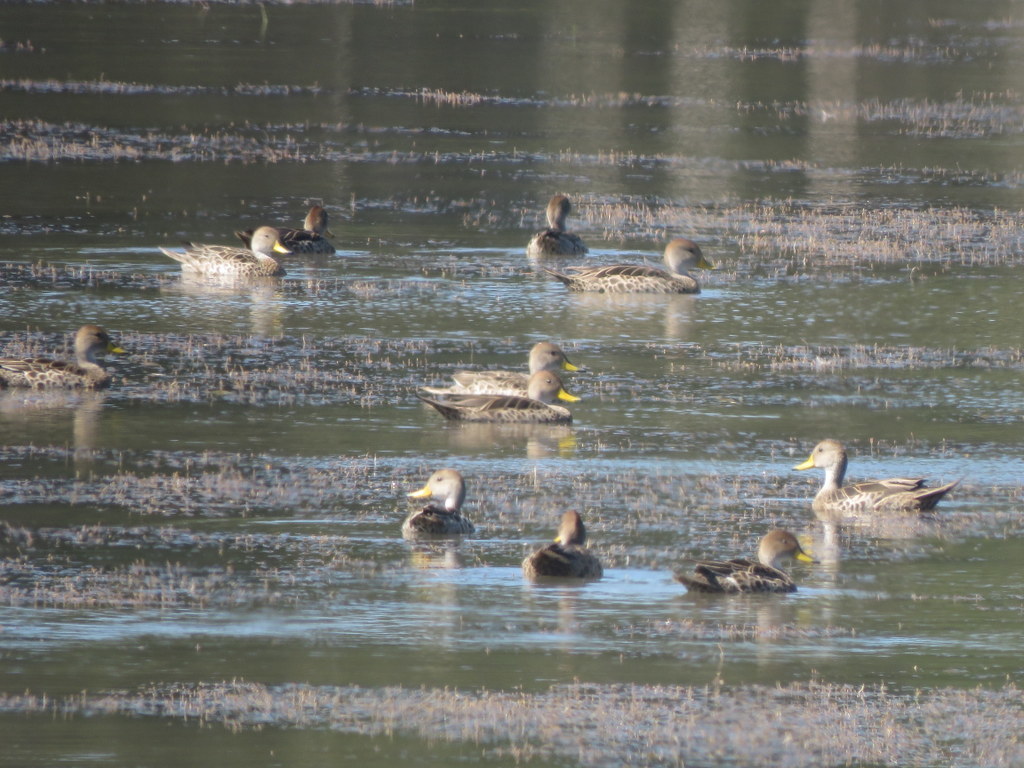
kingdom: Animalia
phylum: Chordata
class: Aves
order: Anseriformes
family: Anatidae
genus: Anas
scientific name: Anas georgica
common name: Yellow-billed pintail
